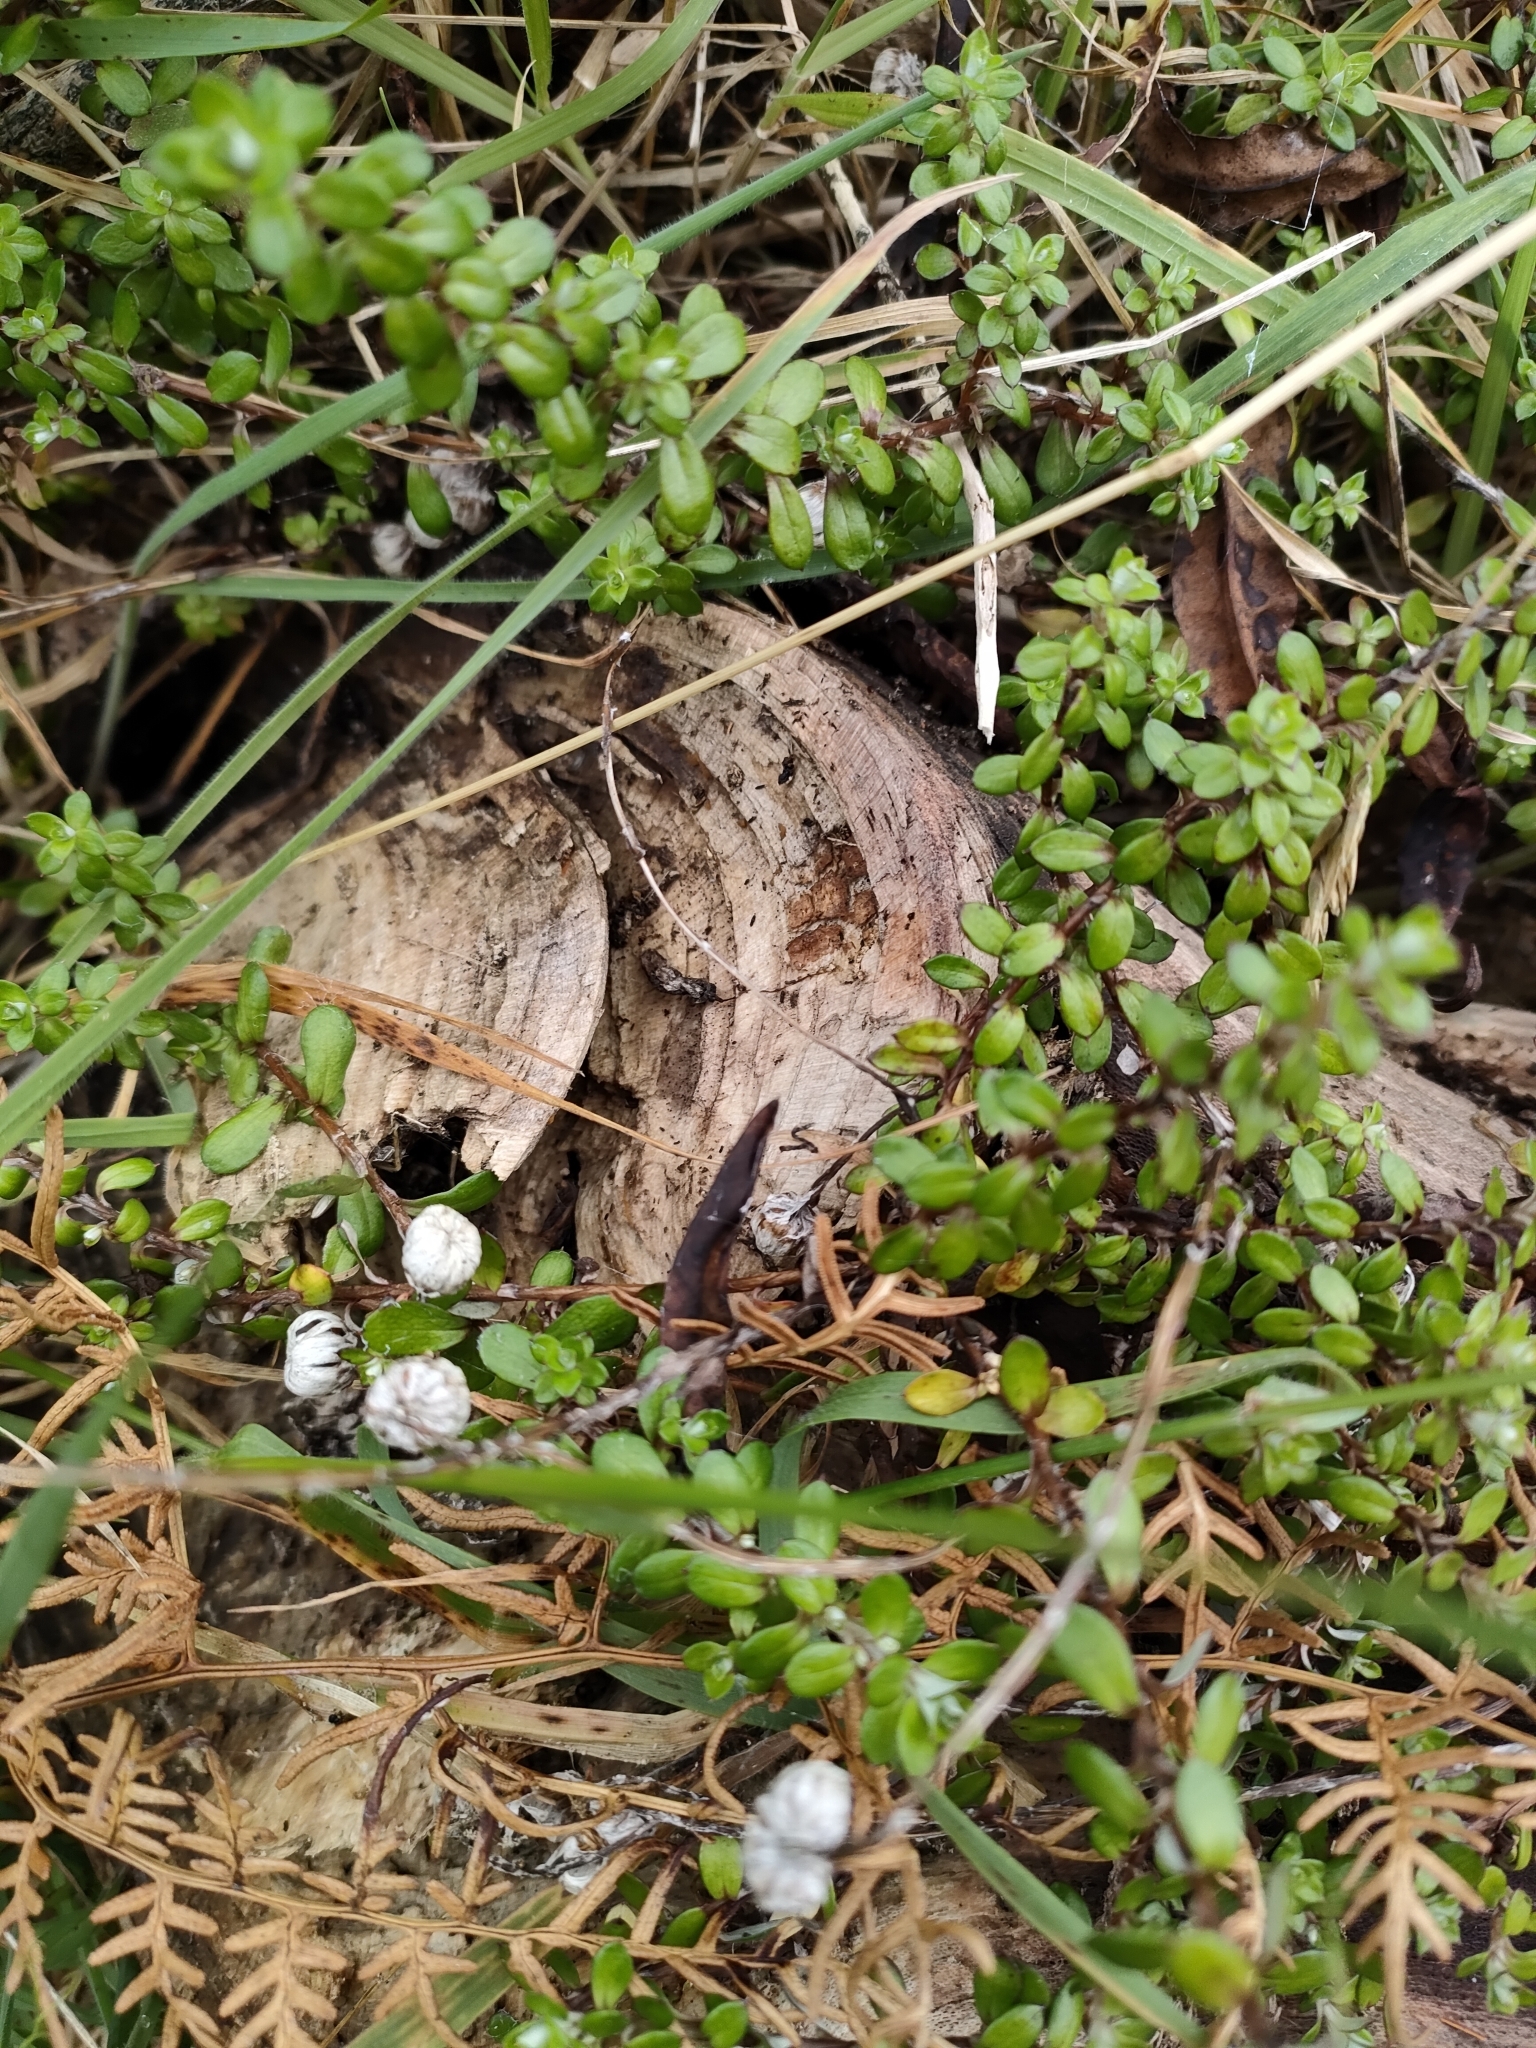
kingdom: Plantae
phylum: Tracheophyta
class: Magnoliopsida
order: Asterales
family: Asteraceae
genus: Anaphalioides
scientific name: Anaphalioides bellidioides
